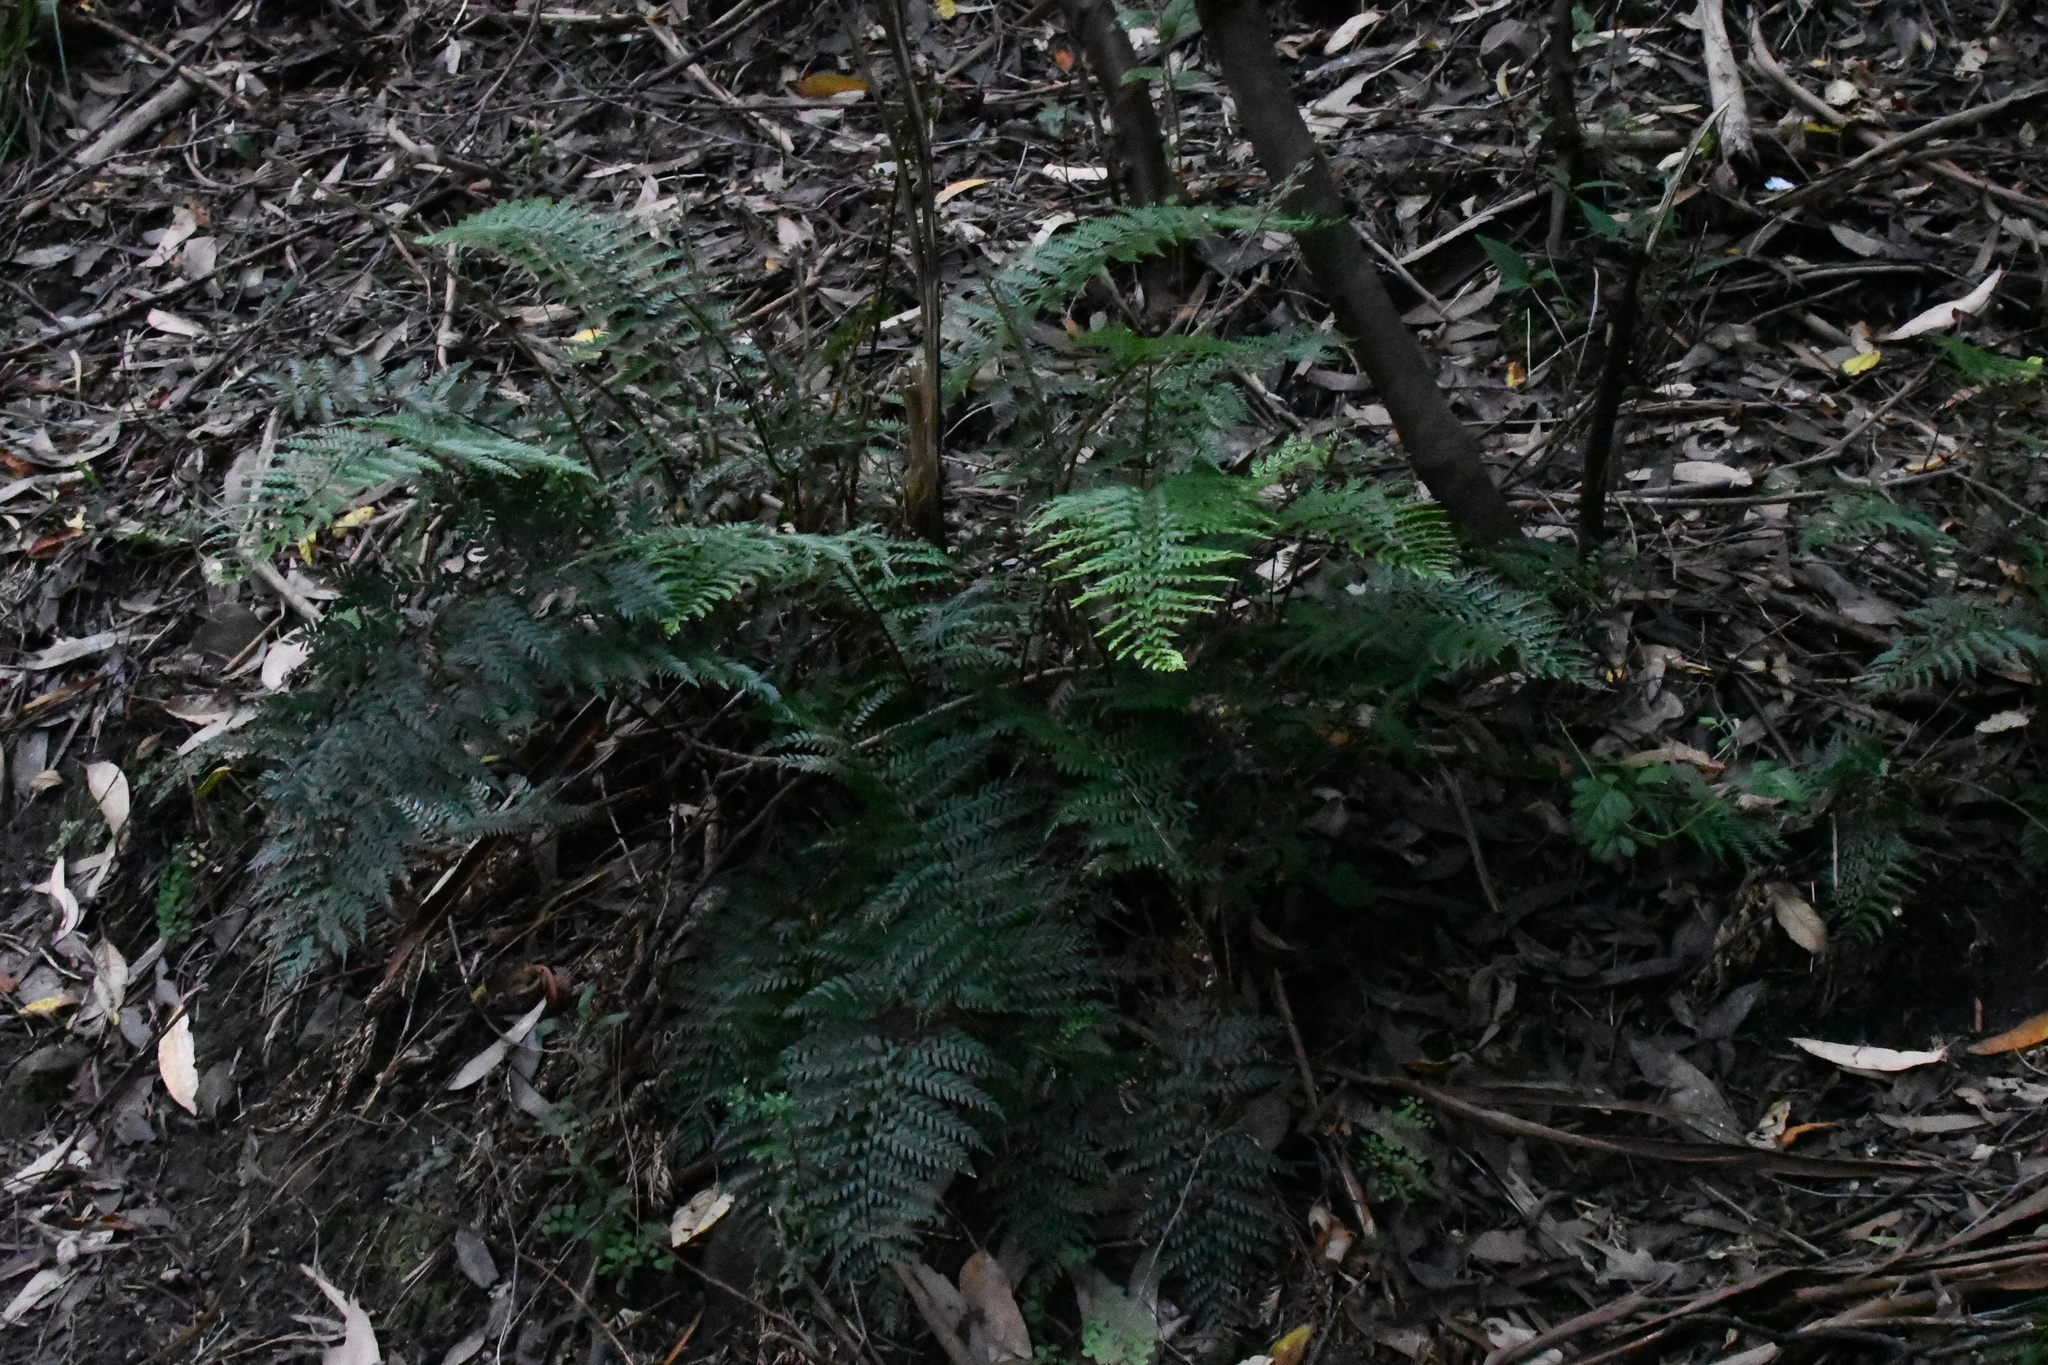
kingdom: Plantae
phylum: Tracheophyta
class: Polypodiopsida
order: Polypodiales
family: Dryopteridaceae
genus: Polystichum
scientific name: Polystichum proliferum
